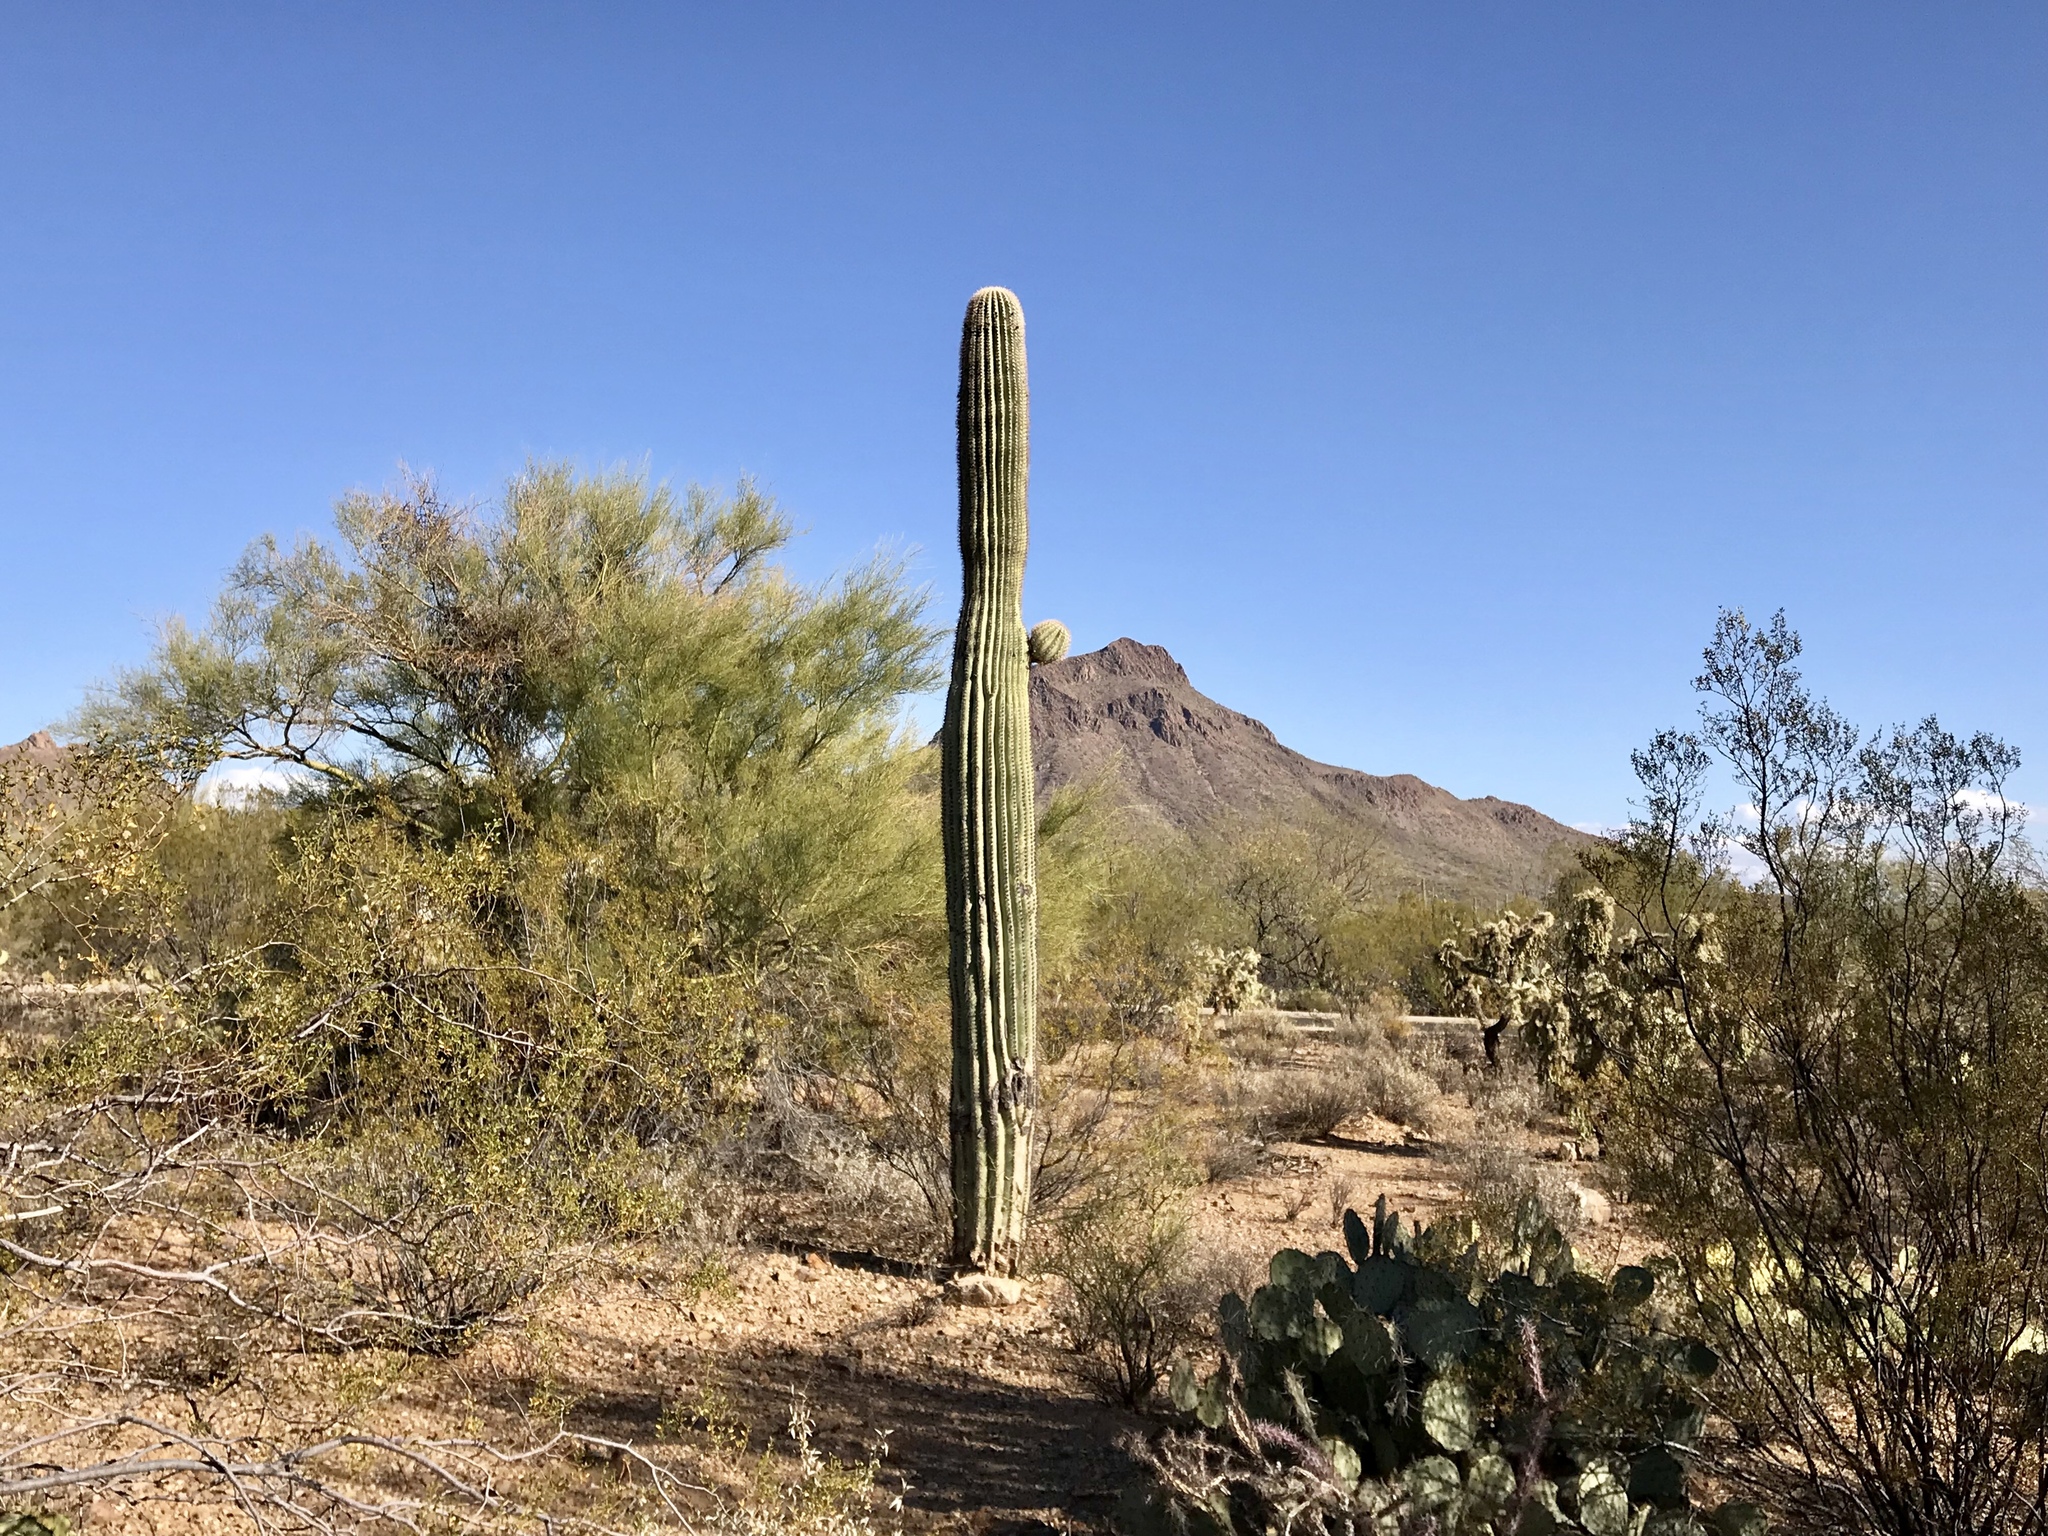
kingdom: Plantae
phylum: Tracheophyta
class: Magnoliopsida
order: Caryophyllales
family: Cactaceae
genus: Carnegiea
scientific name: Carnegiea gigantea
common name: Saguaro
